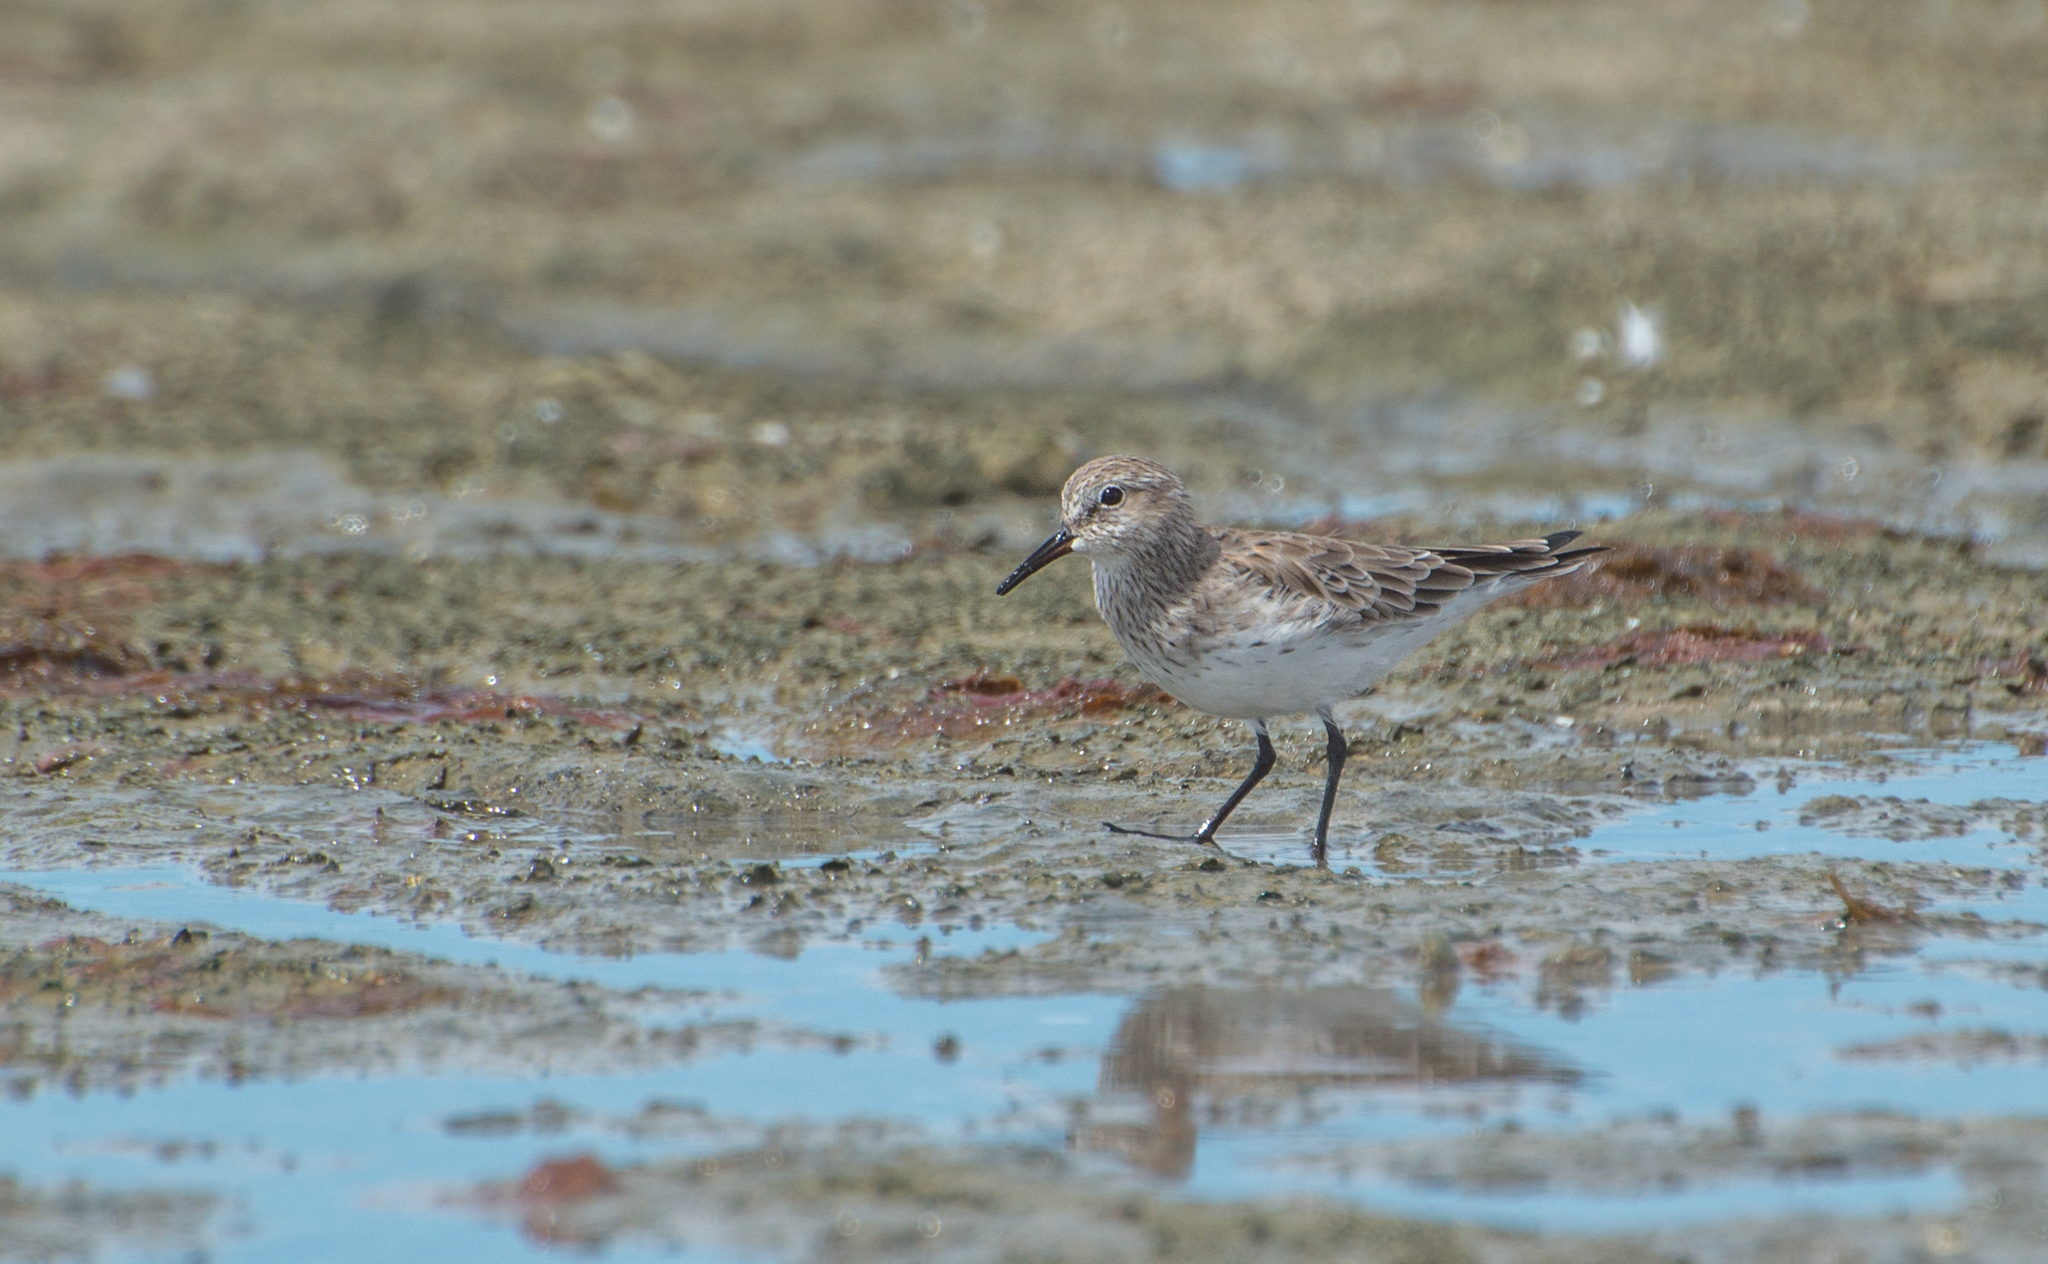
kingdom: Animalia
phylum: Chordata
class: Aves
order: Charadriiformes
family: Scolopacidae
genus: Calidris
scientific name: Calidris fuscicollis
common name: White-rumped sandpiper
